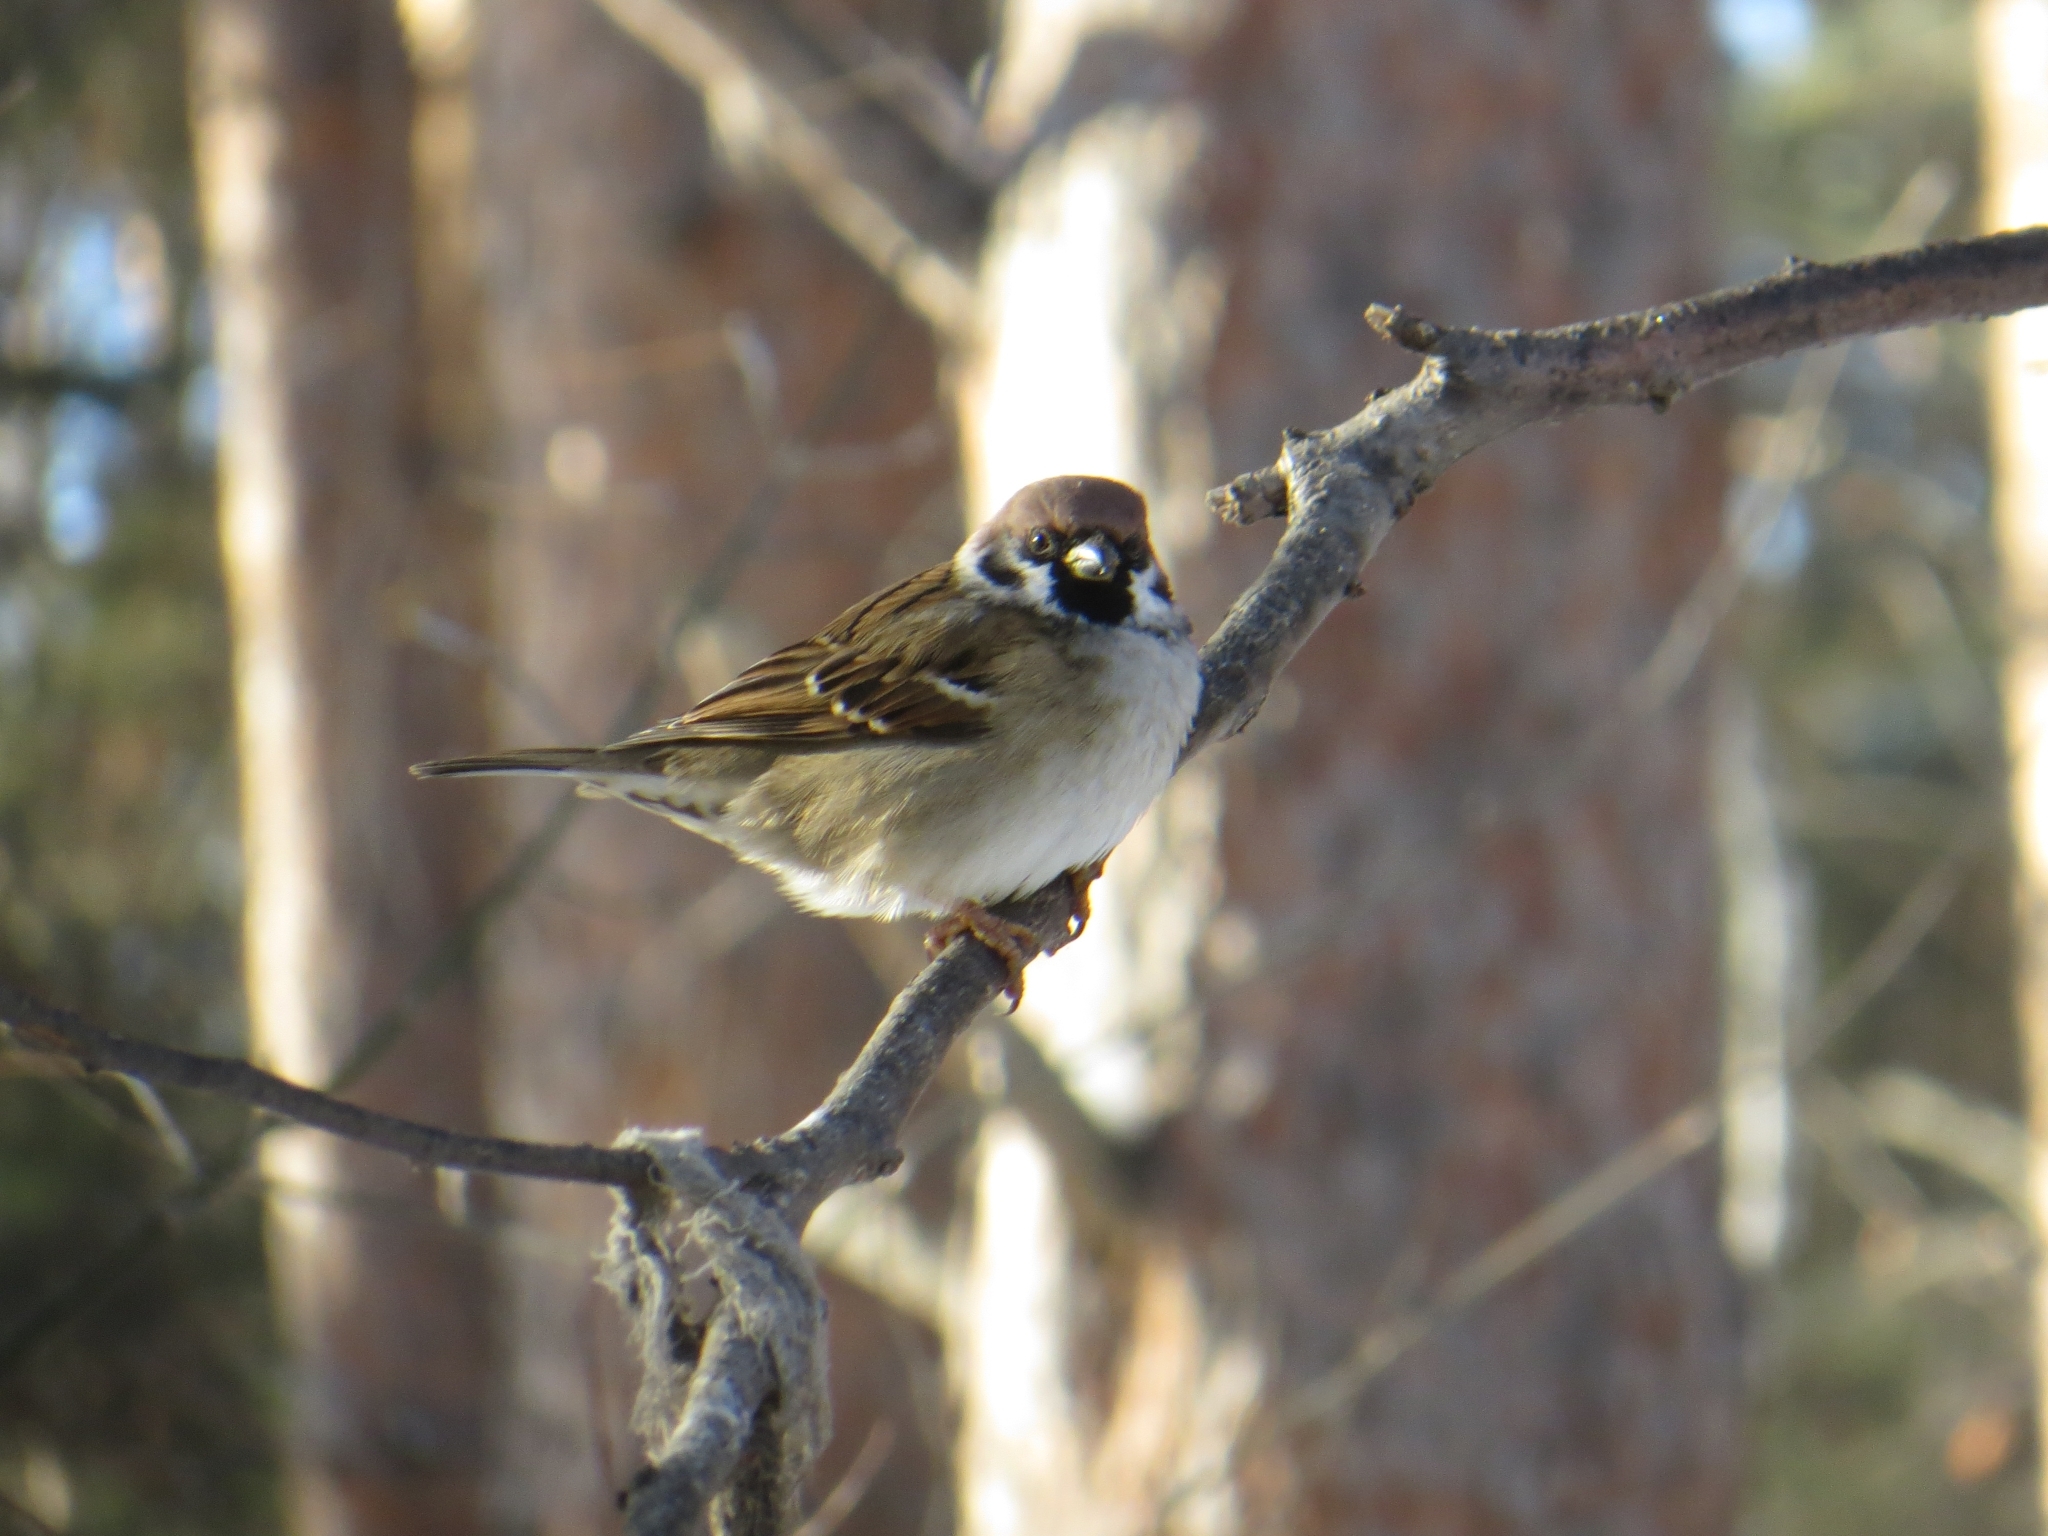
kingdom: Animalia
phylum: Chordata
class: Aves
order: Passeriformes
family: Passeridae
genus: Passer
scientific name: Passer montanus
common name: Eurasian tree sparrow
